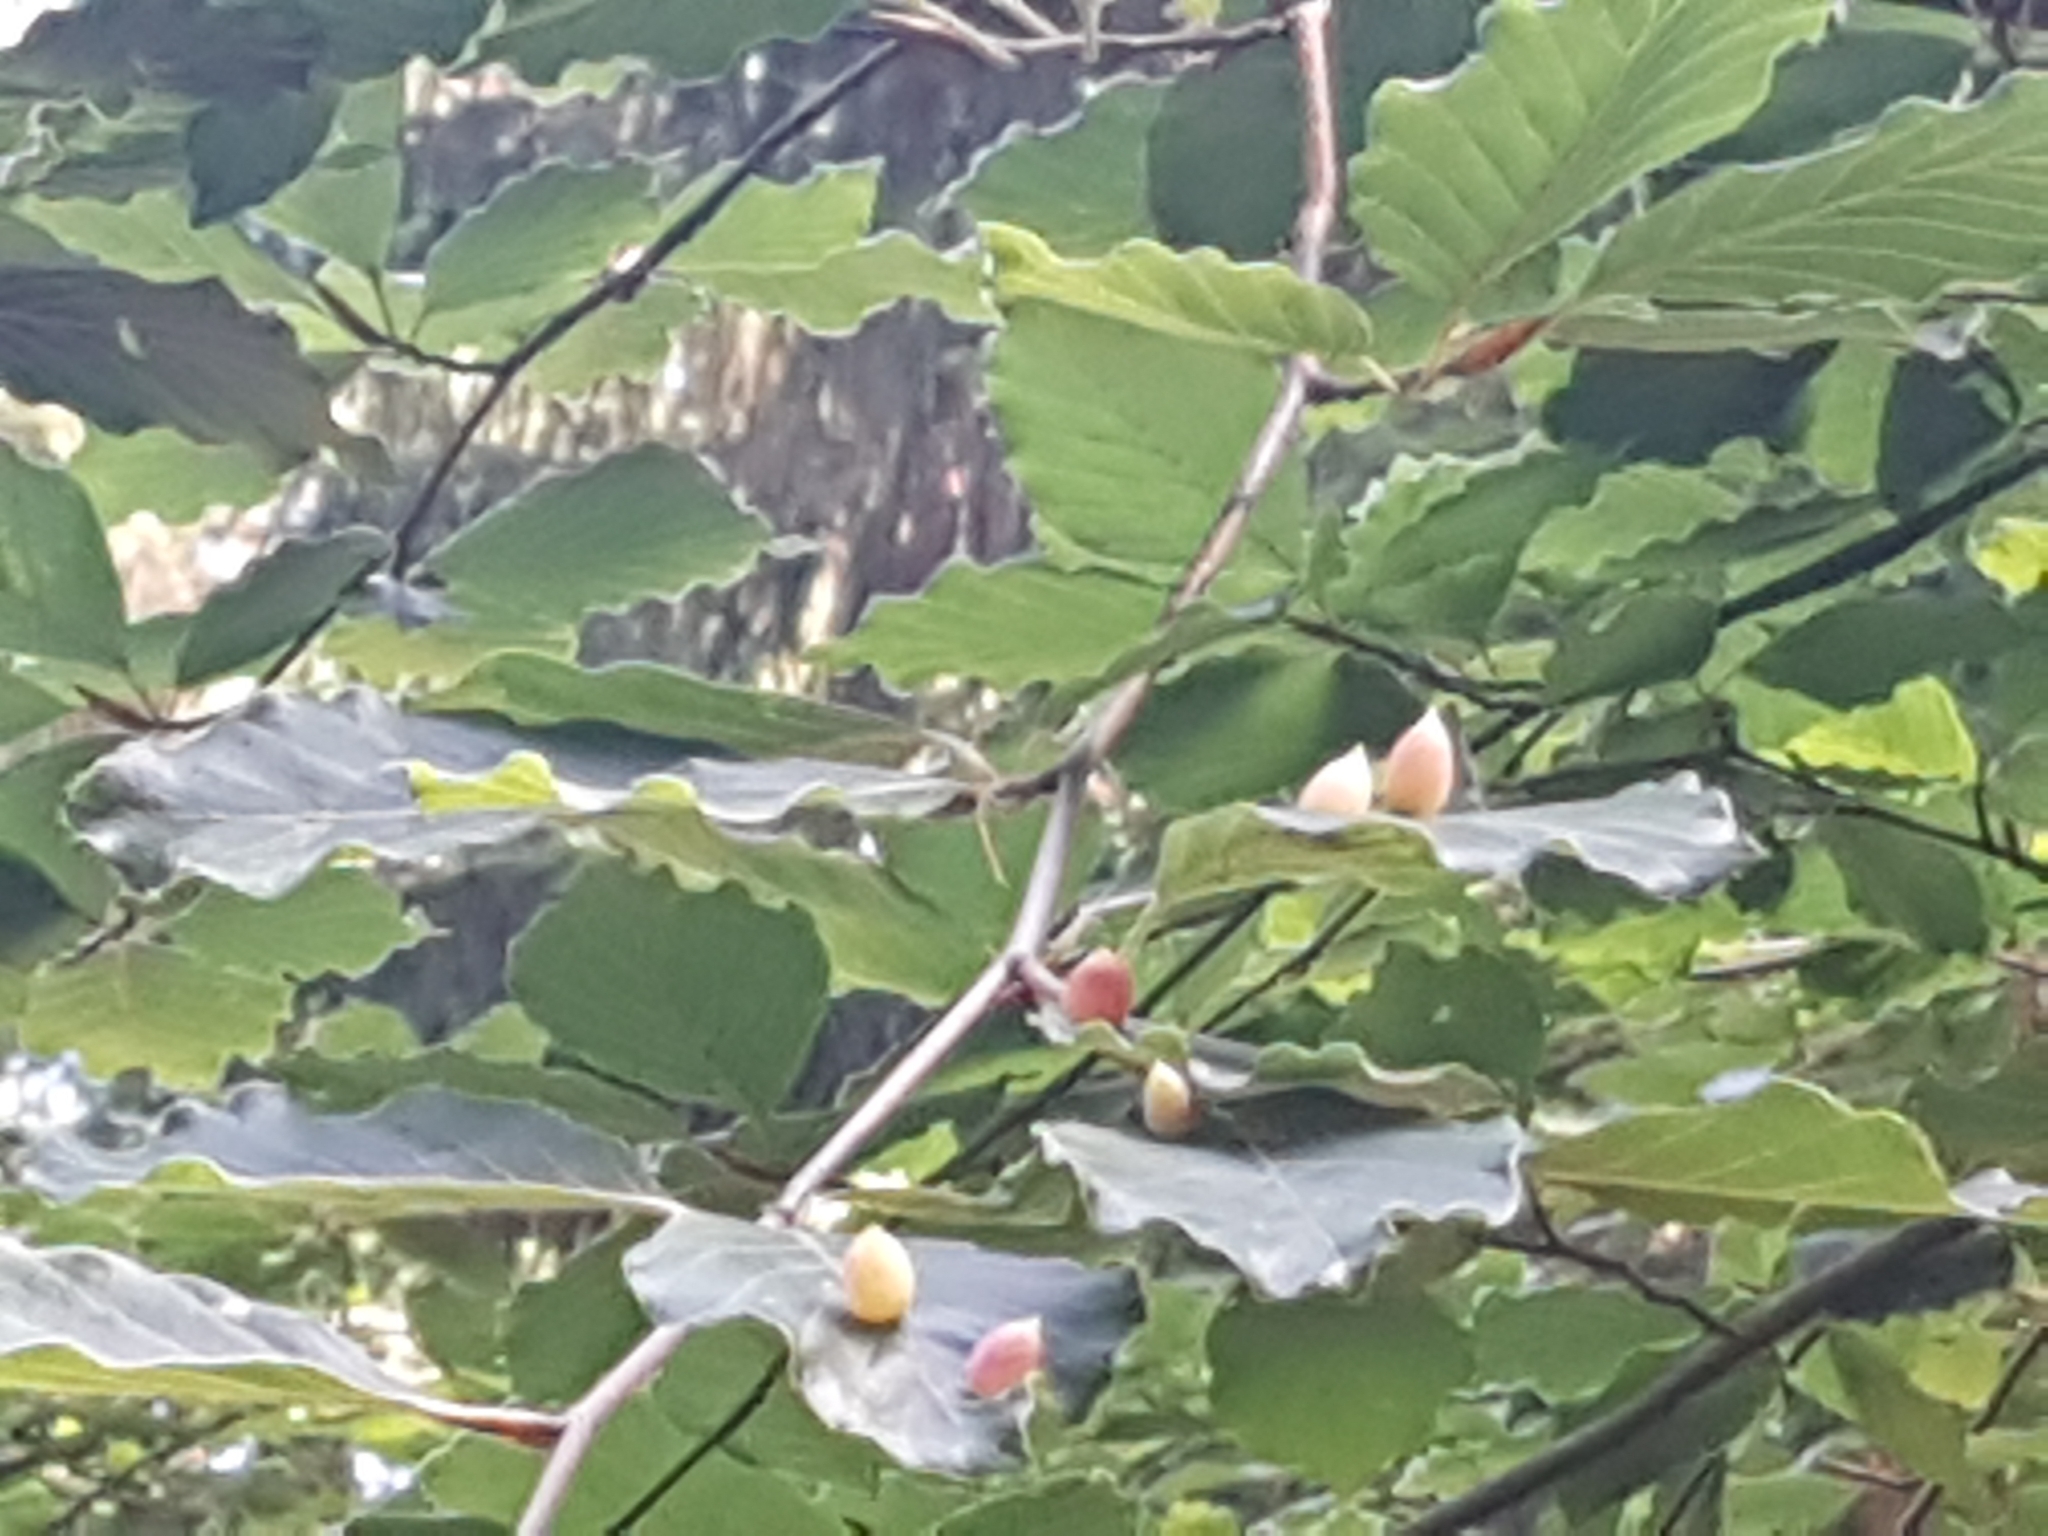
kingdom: Animalia
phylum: Arthropoda
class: Insecta
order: Diptera
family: Cecidomyiidae
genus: Mikiola
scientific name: Mikiola fagi
